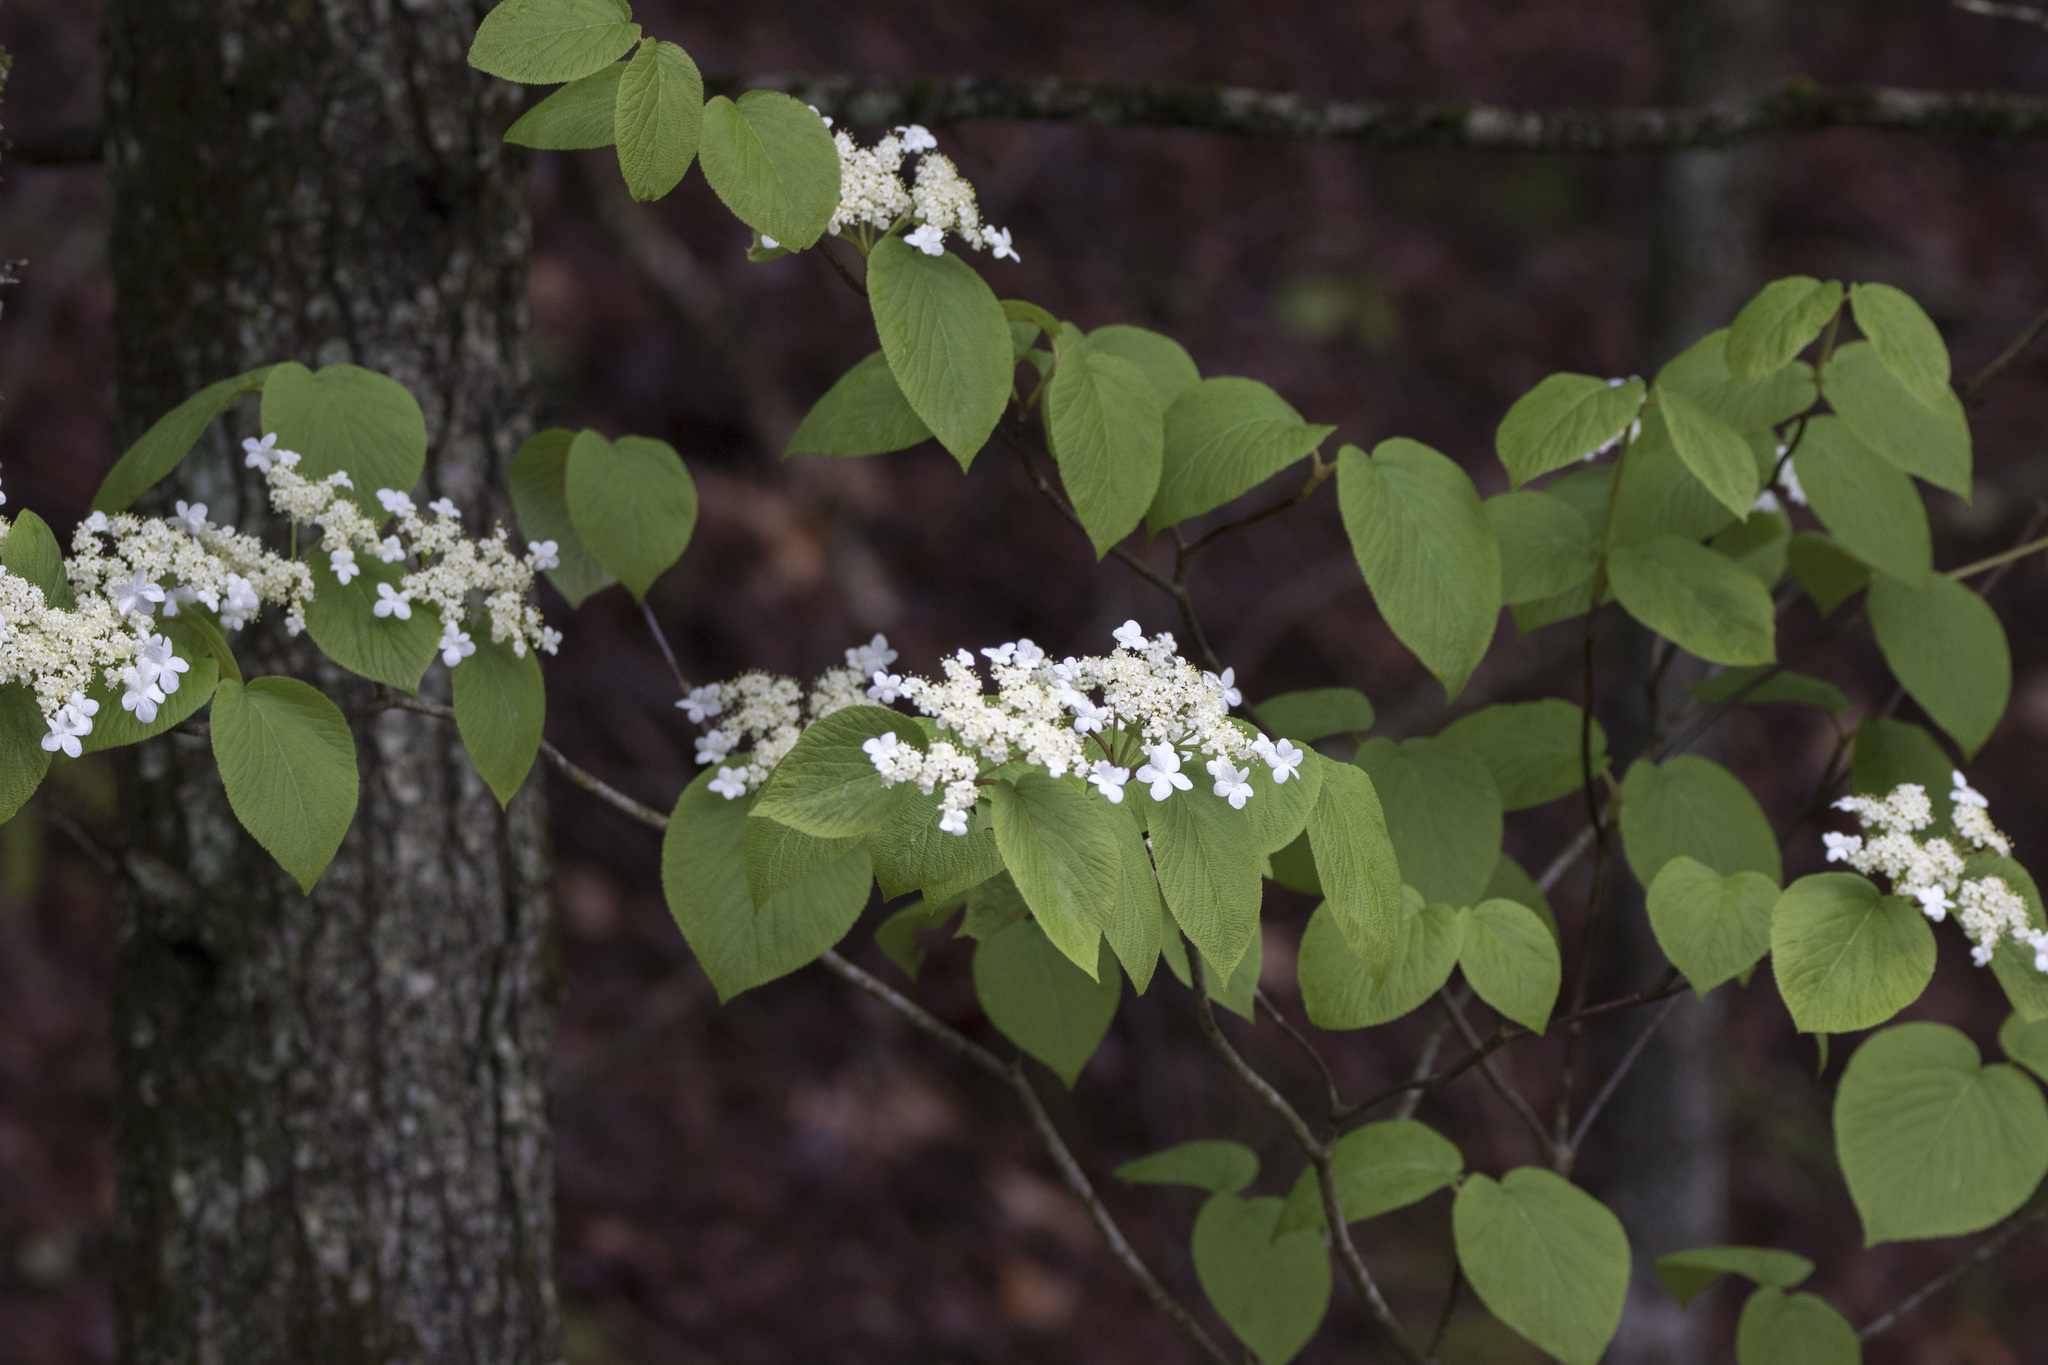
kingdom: Plantae
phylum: Tracheophyta
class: Magnoliopsida
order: Dipsacales
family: Viburnaceae
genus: Viburnum
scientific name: Viburnum lantanoides
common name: Hobblebush
